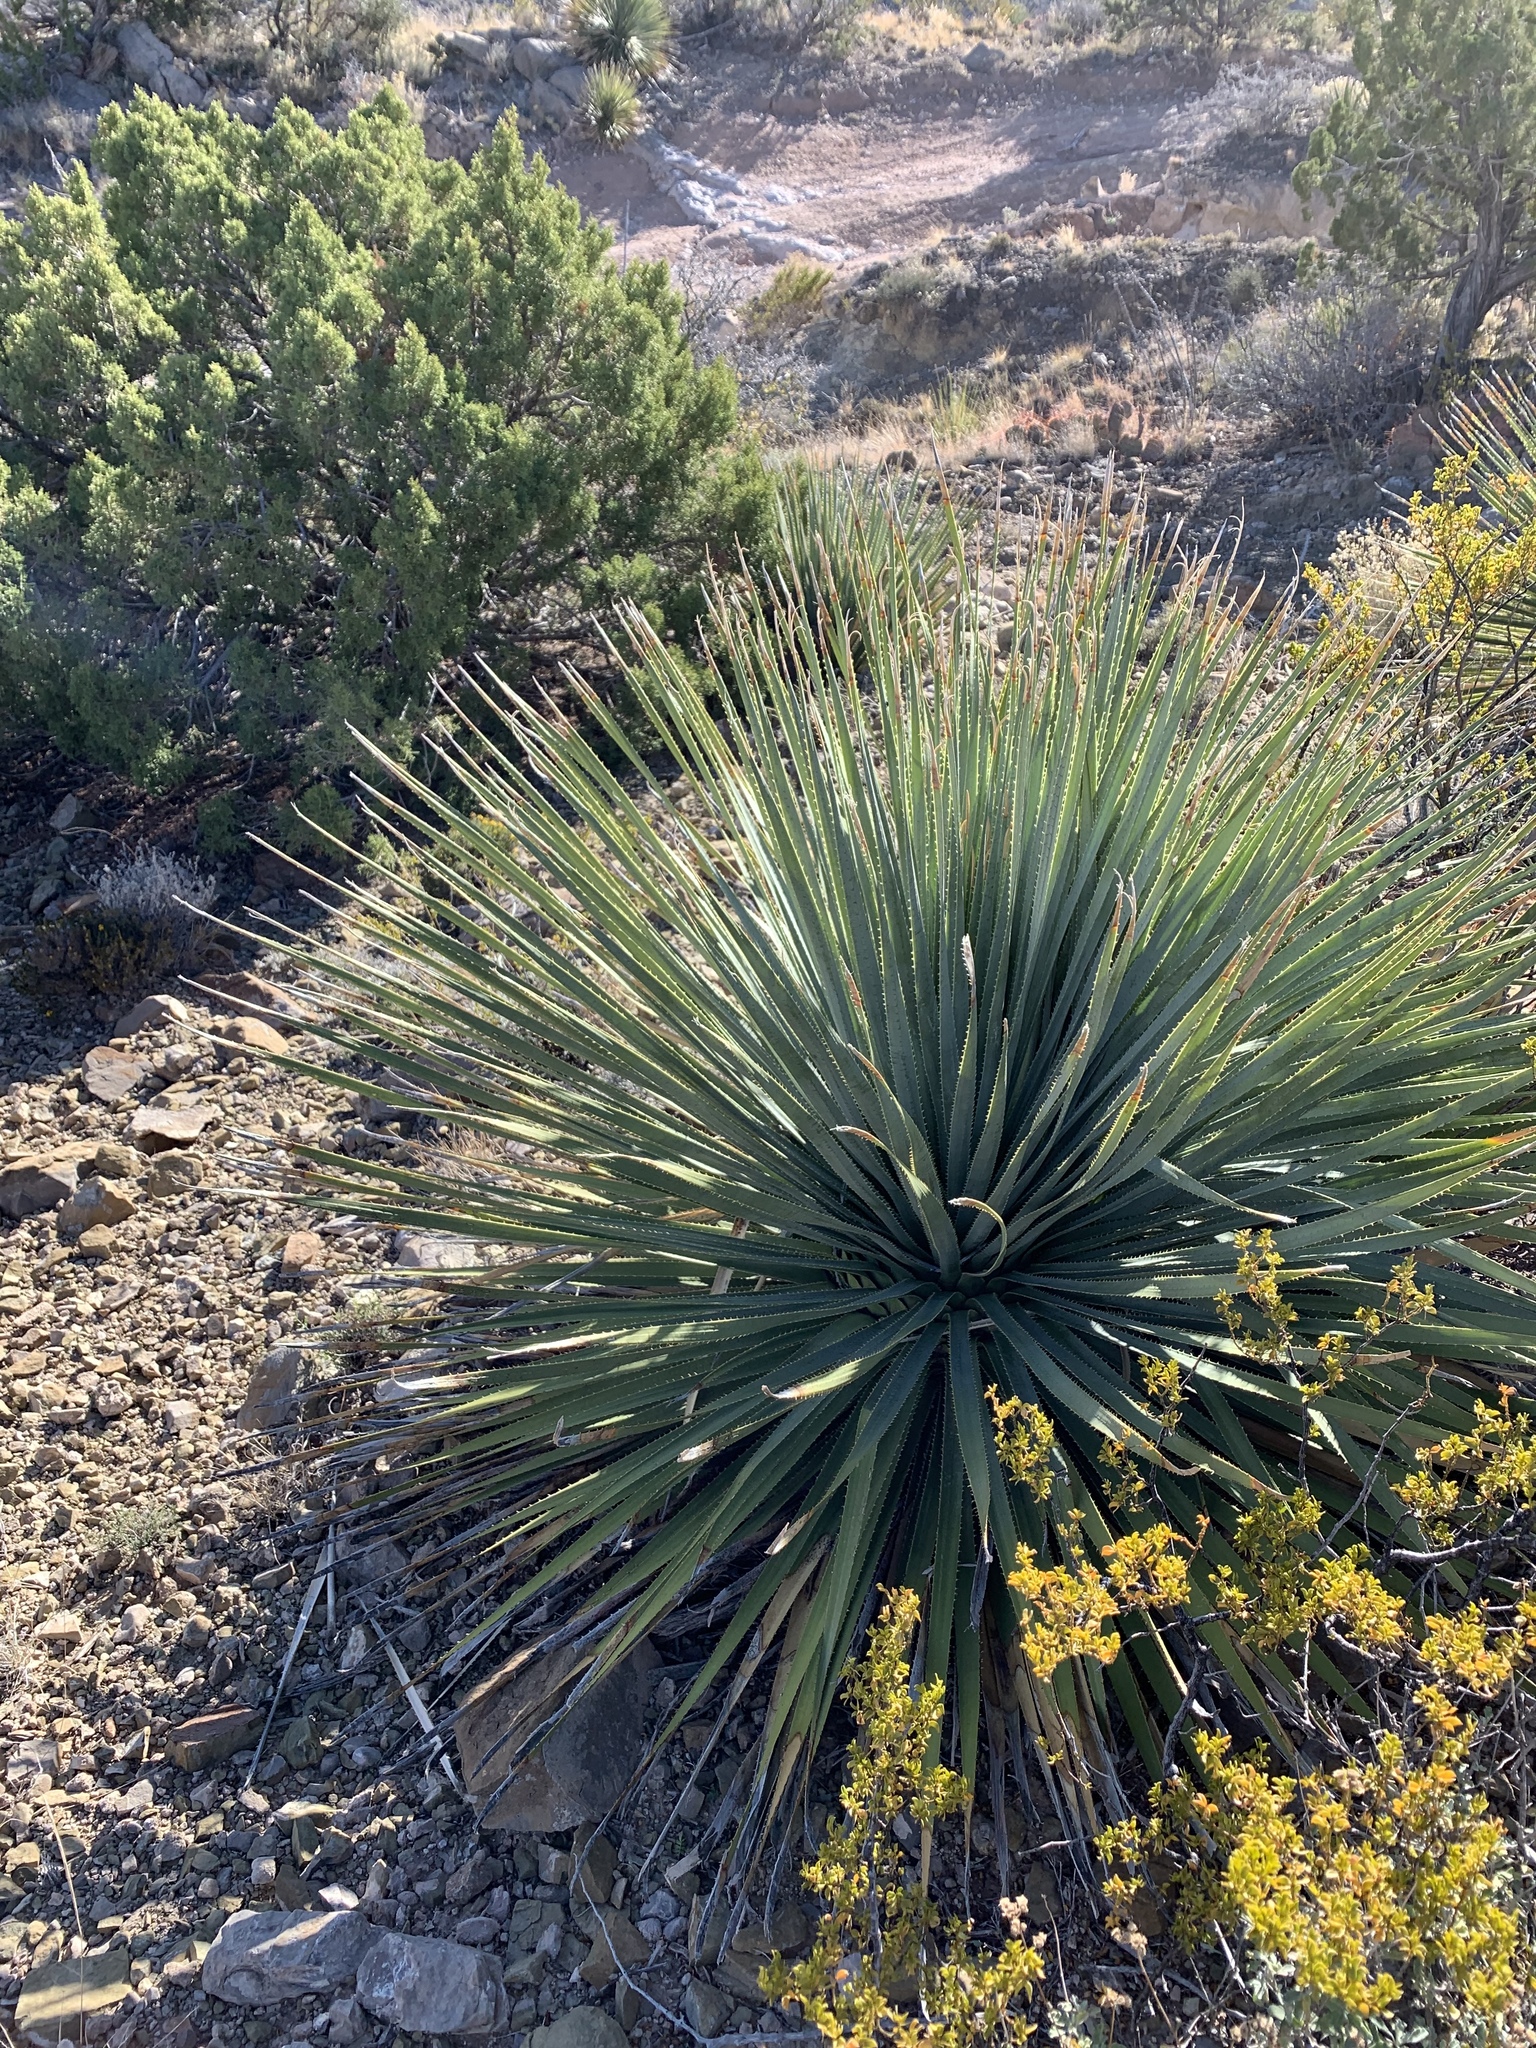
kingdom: Plantae
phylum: Tracheophyta
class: Liliopsida
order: Asparagales
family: Asparagaceae
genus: Dasylirion
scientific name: Dasylirion wheeleri
